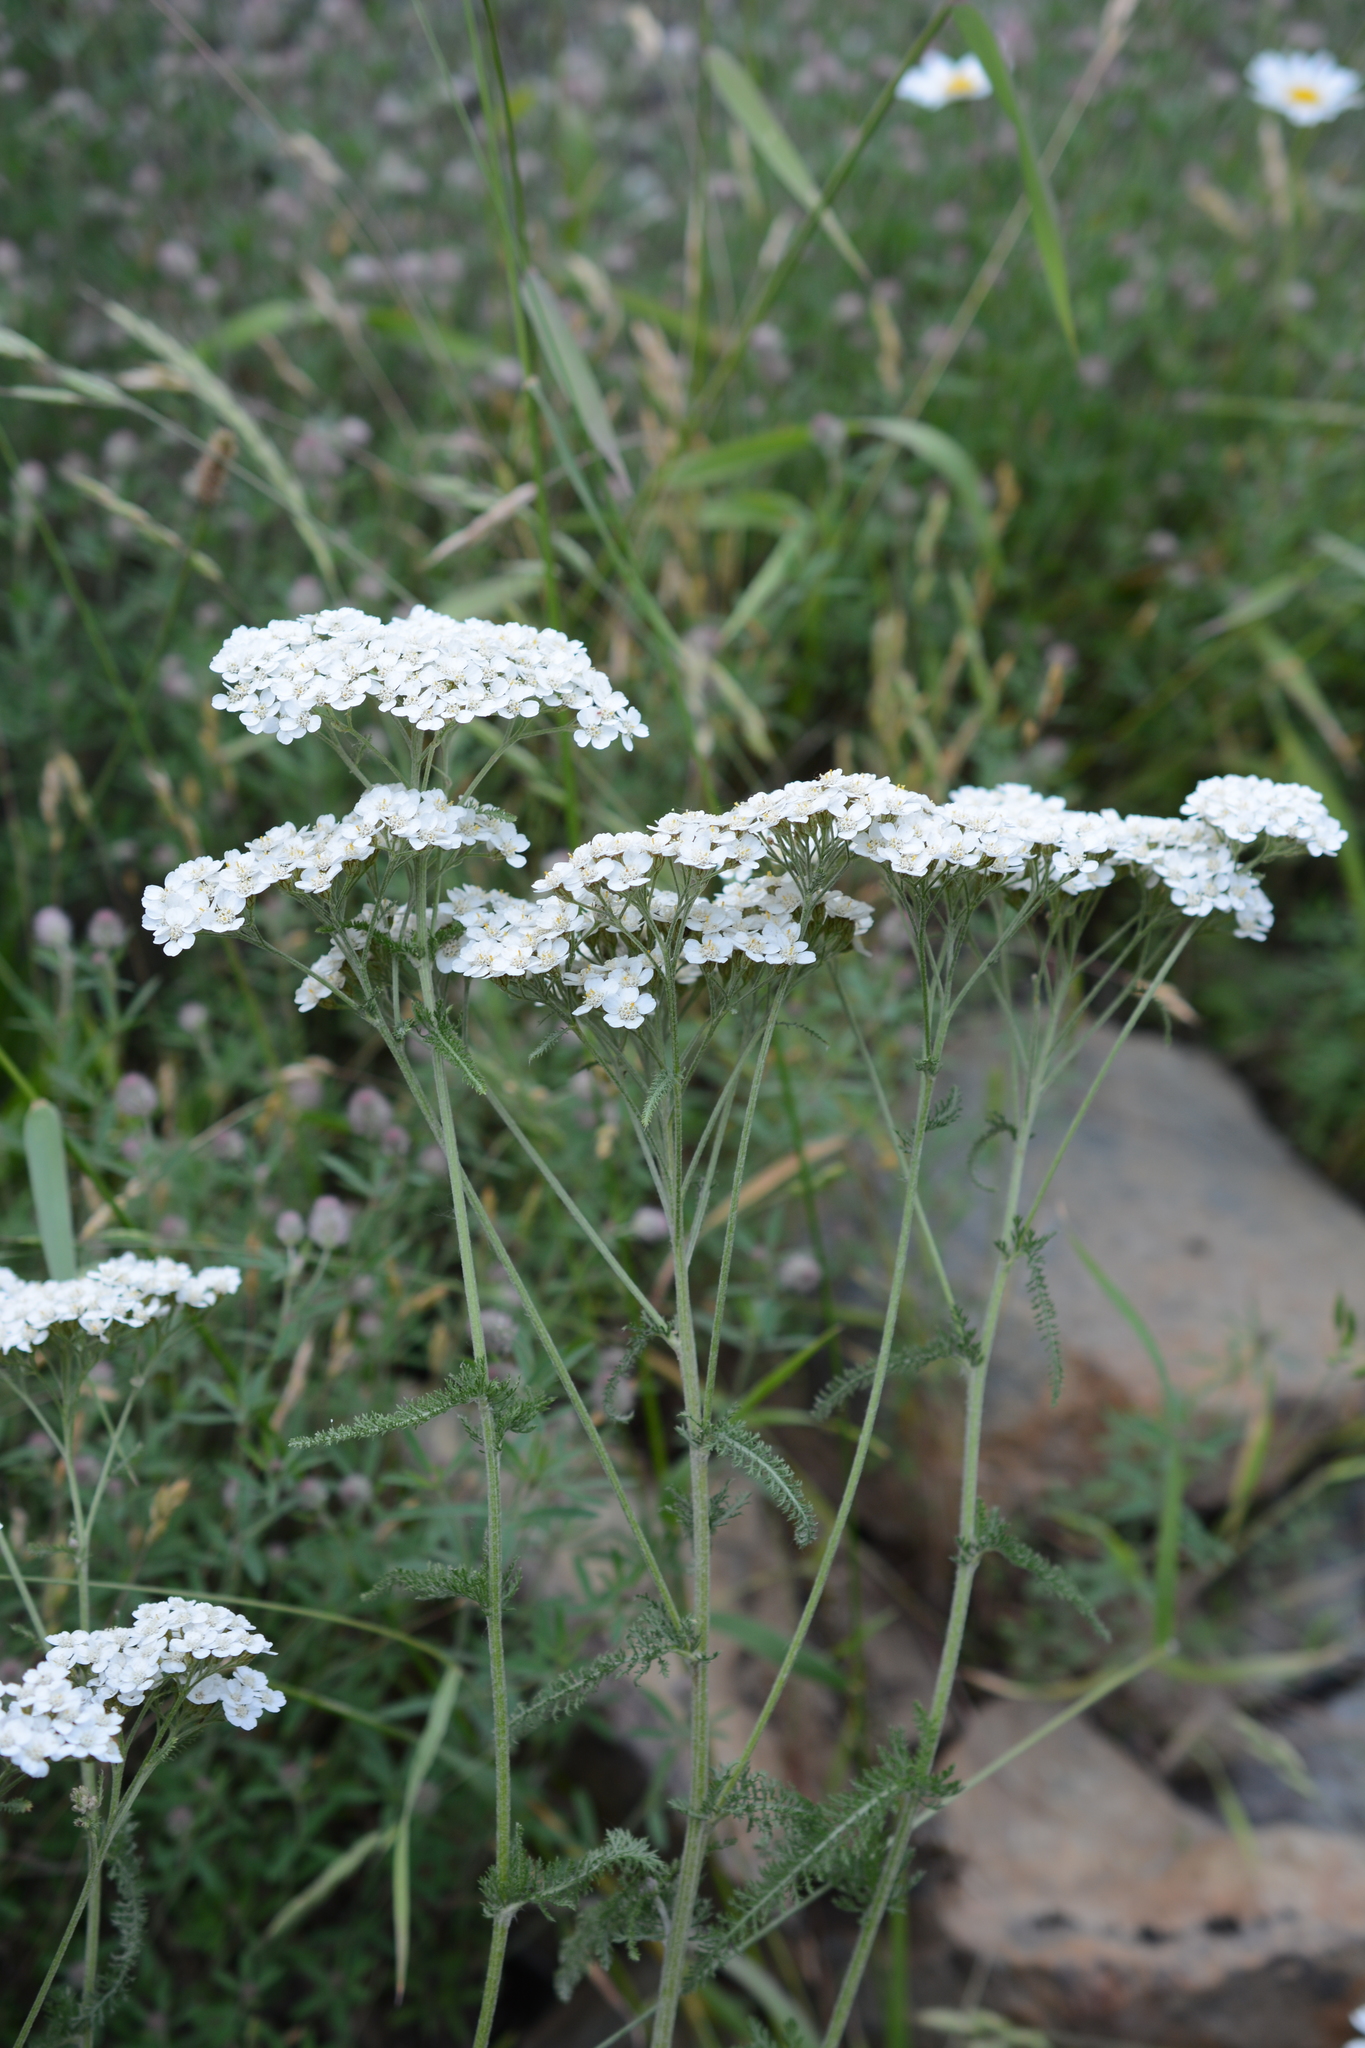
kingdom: Plantae
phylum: Tracheophyta
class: Magnoliopsida
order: Asterales
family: Asteraceae
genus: Achillea
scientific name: Achillea millefolium
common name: Yarrow
